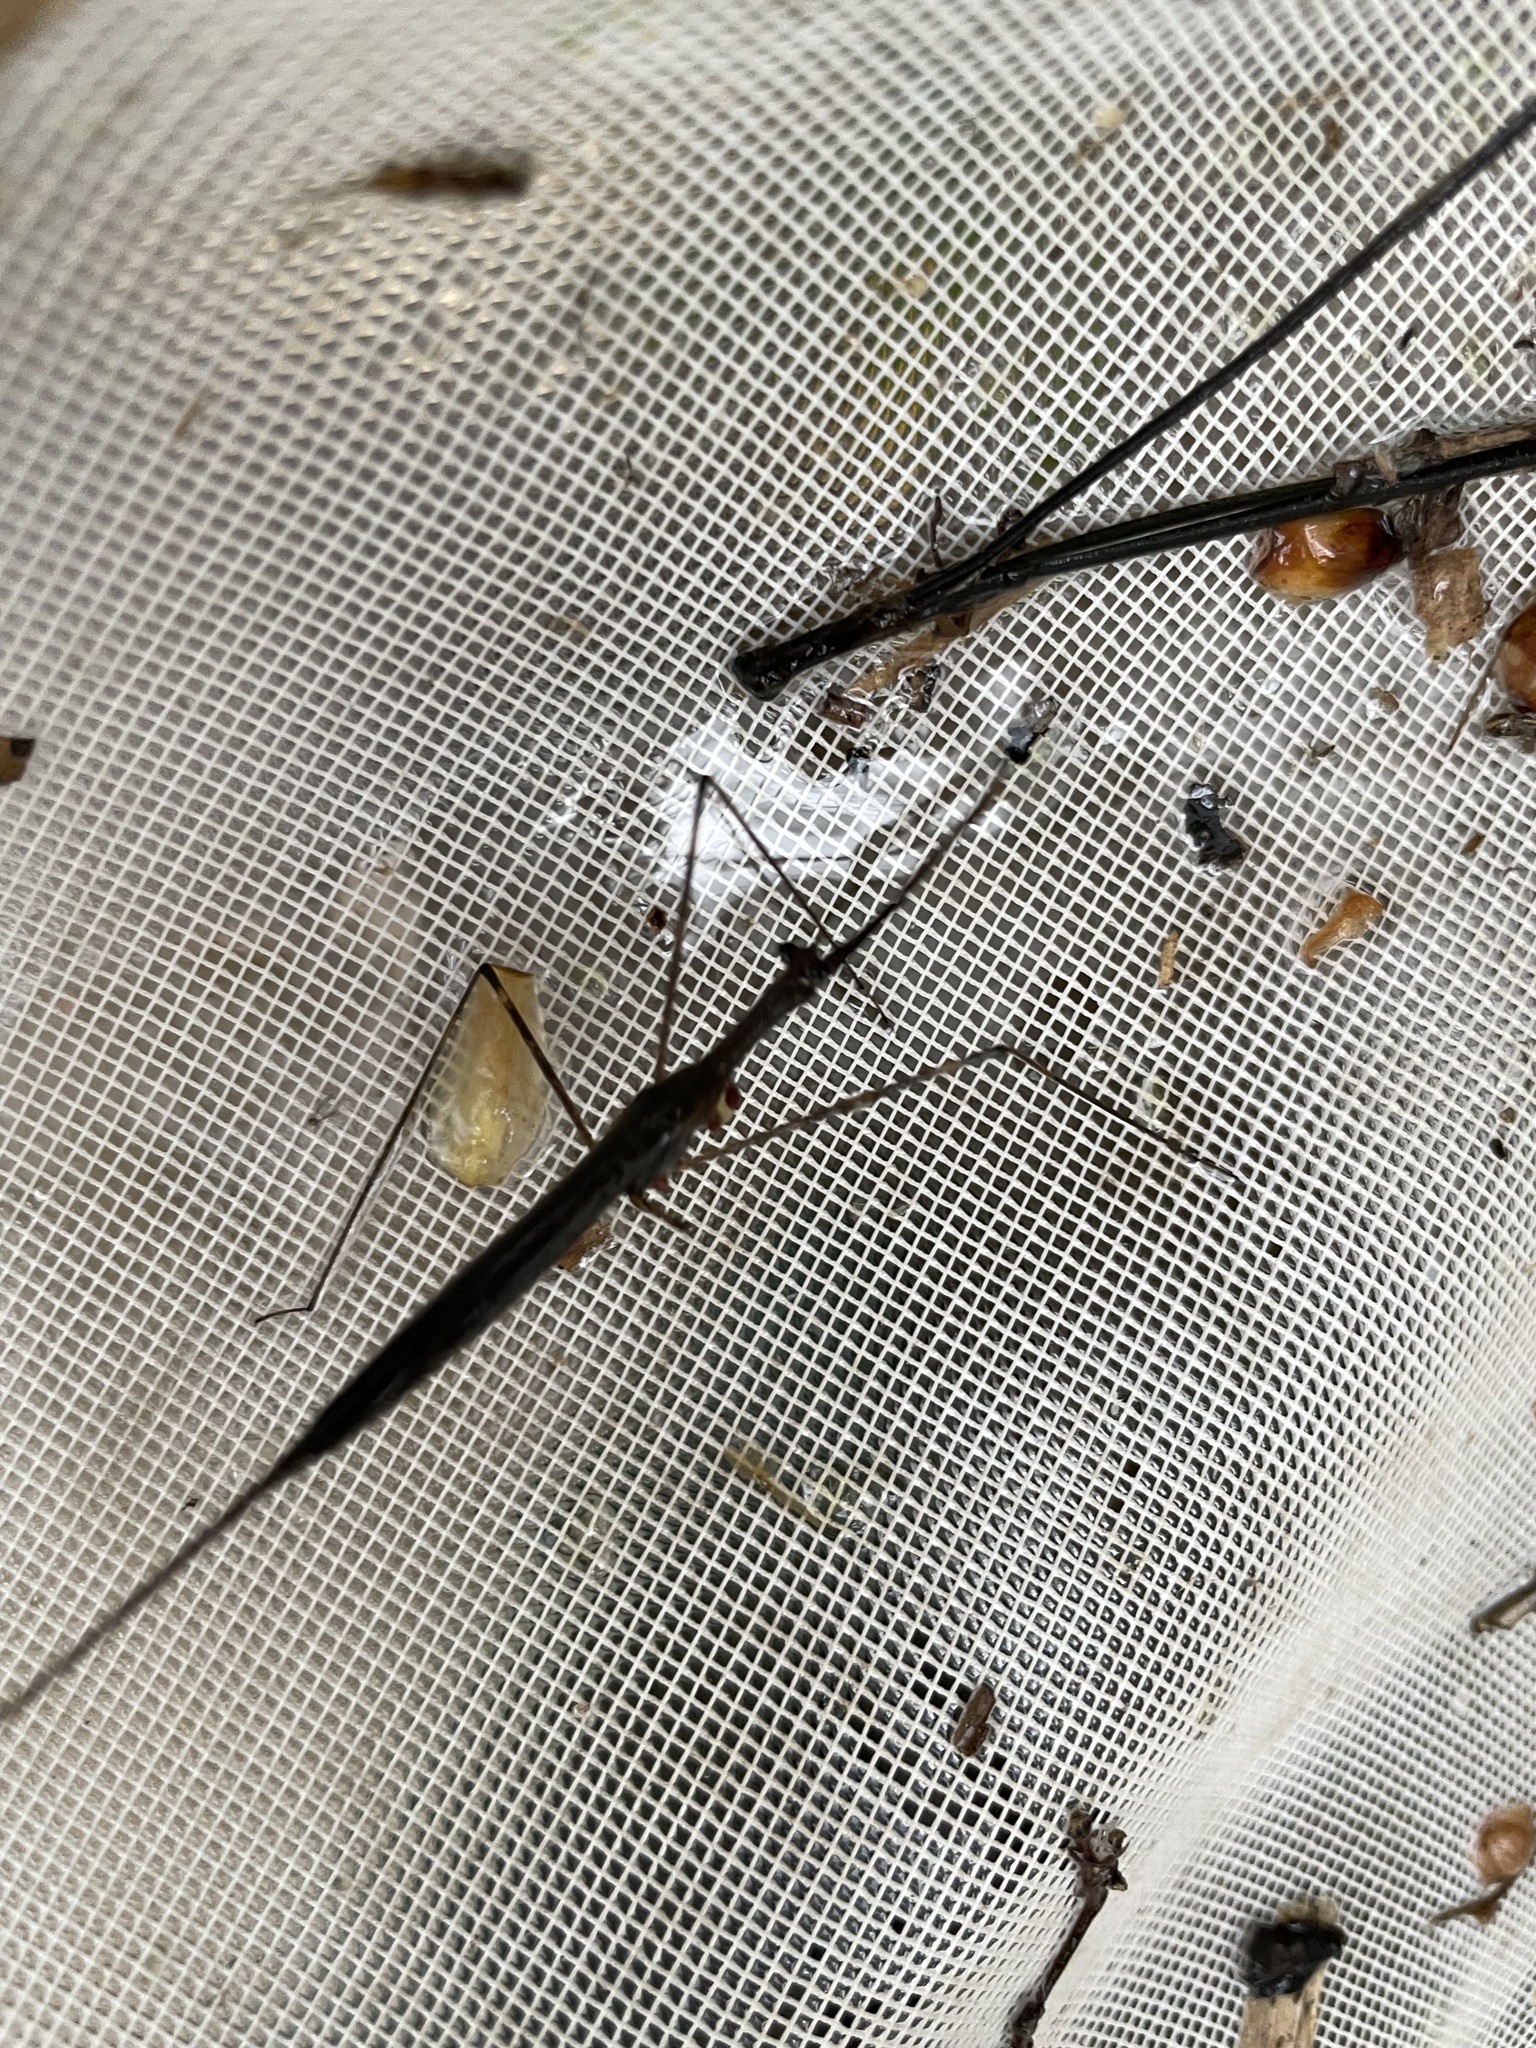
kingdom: Animalia
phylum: Arthropoda
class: Insecta
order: Hemiptera
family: Nepidae
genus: Ranatra
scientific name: Ranatra
